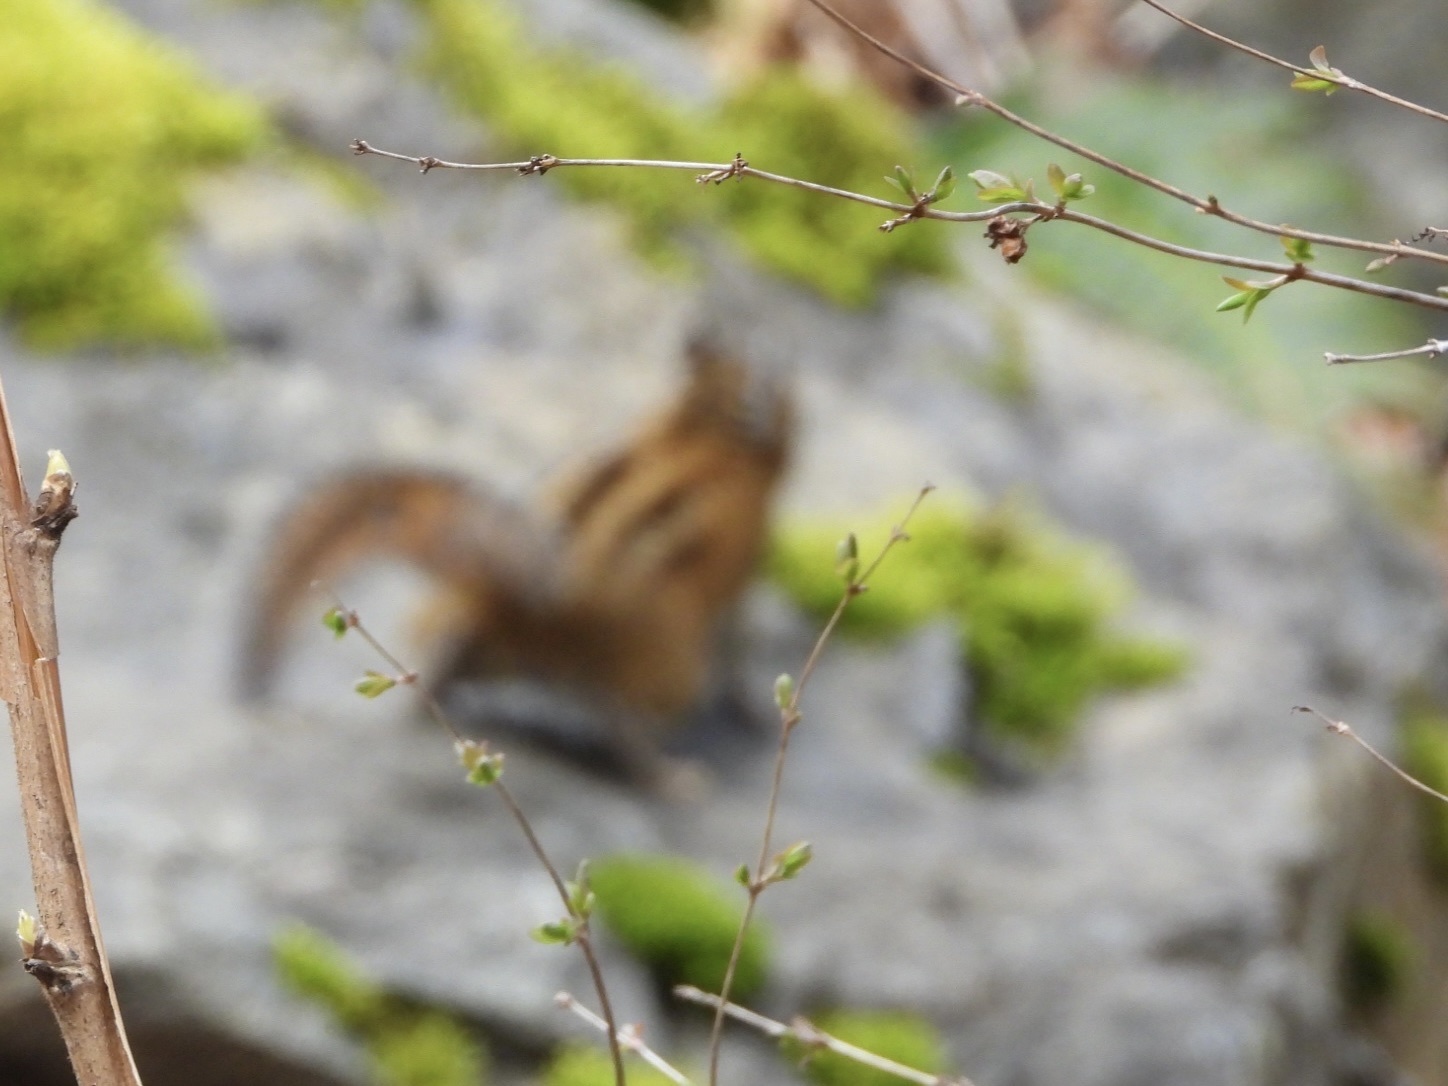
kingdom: Animalia
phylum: Chordata
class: Mammalia
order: Rodentia
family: Sciuridae
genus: Tamias
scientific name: Tamias townsendii
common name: Townsend's chipmunk
